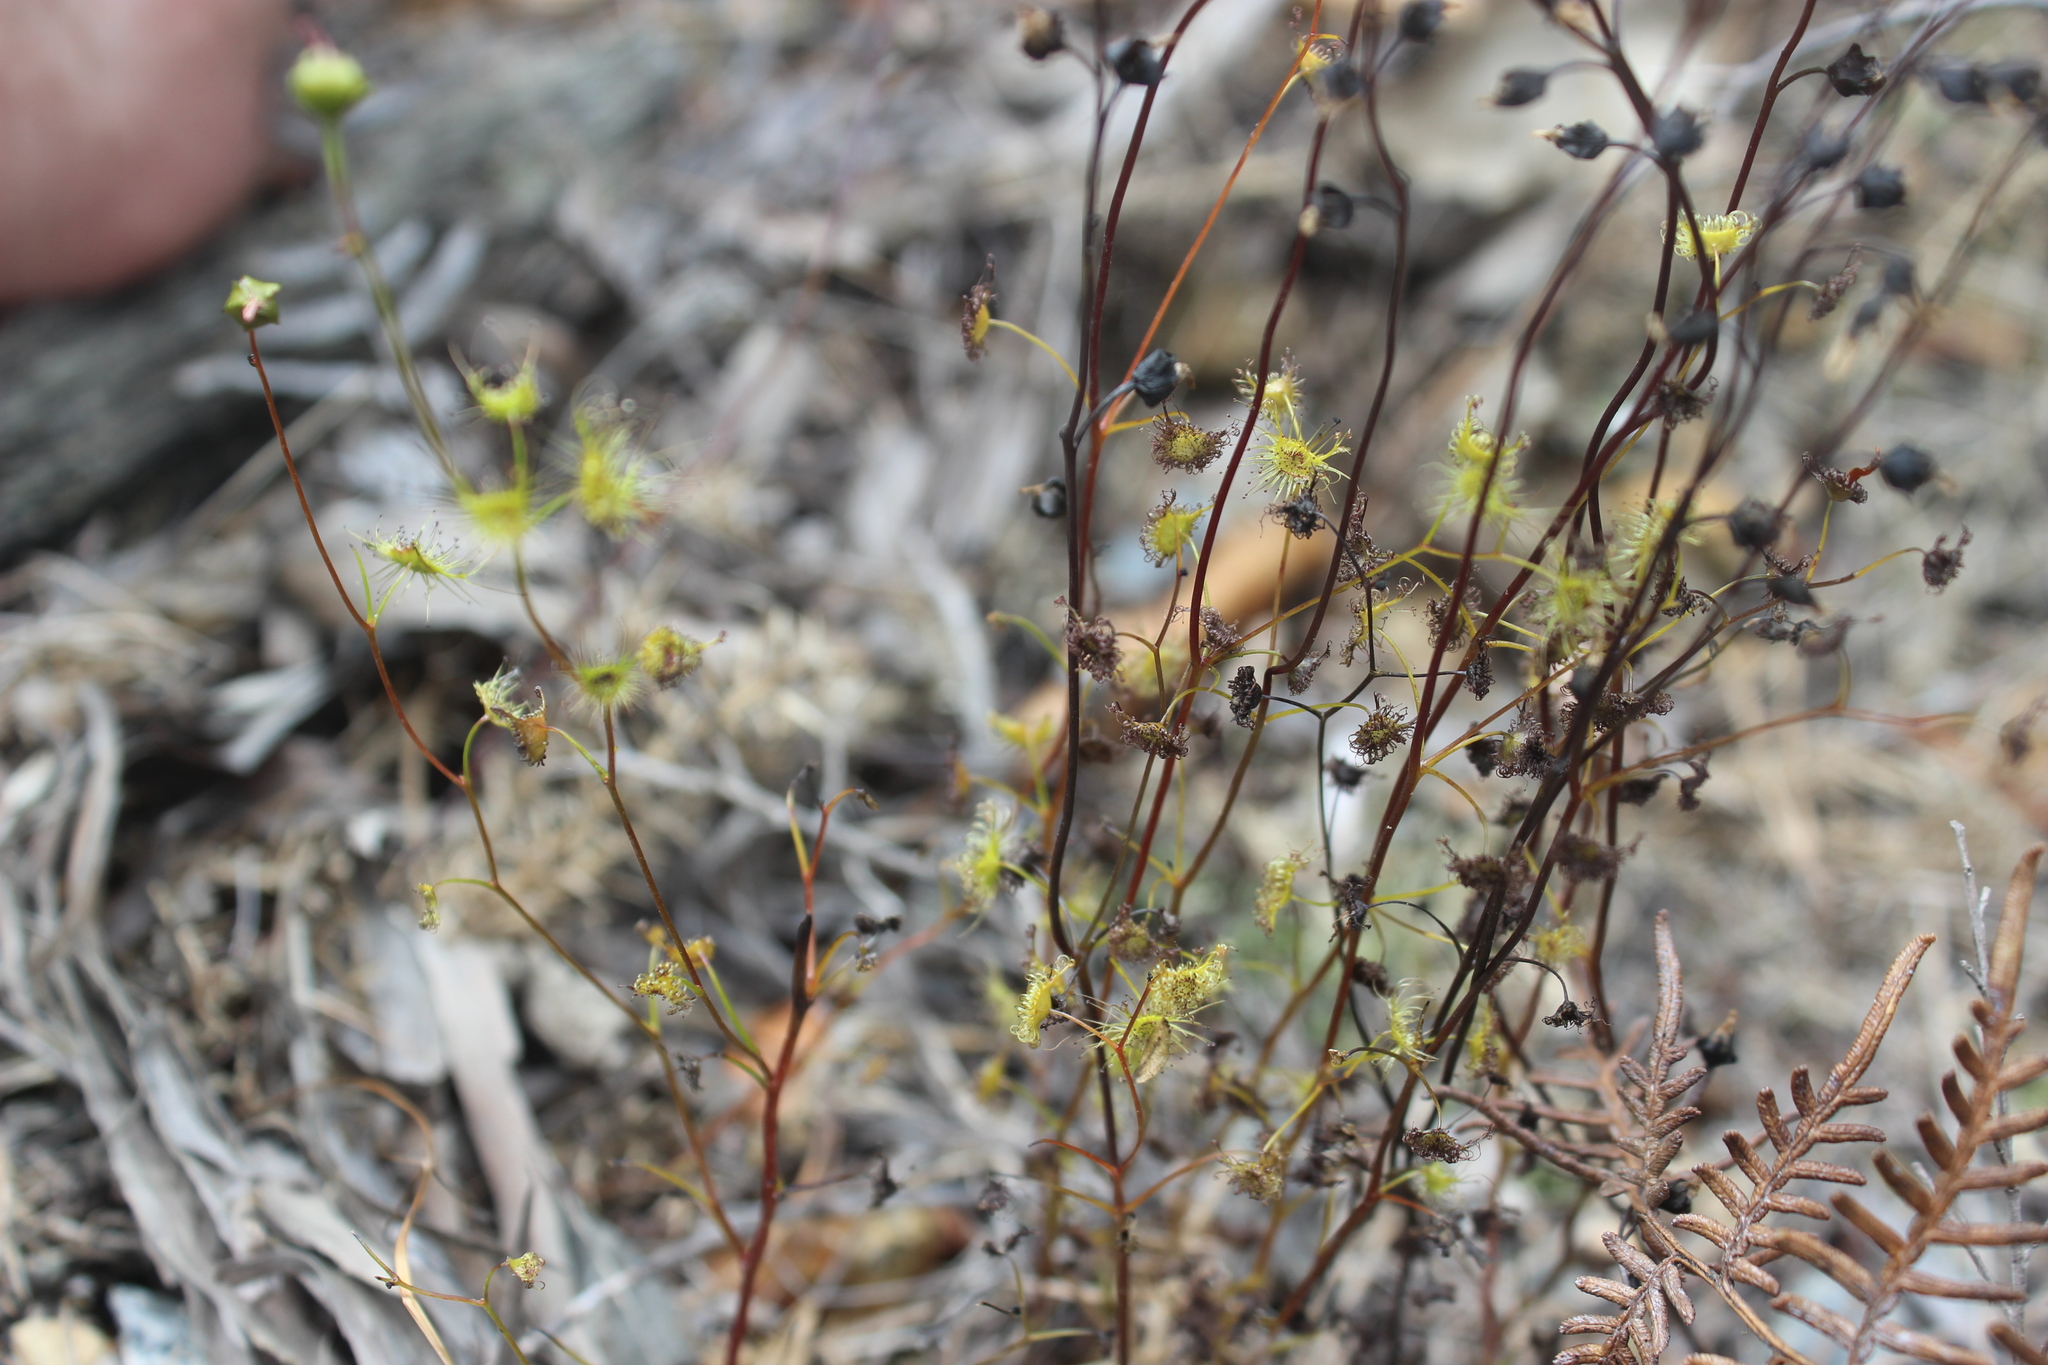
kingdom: Plantae
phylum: Tracheophyta
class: Magnoliopsida
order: Caryophyllales
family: Droseraceae
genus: Drosera
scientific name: Drosera peltata
